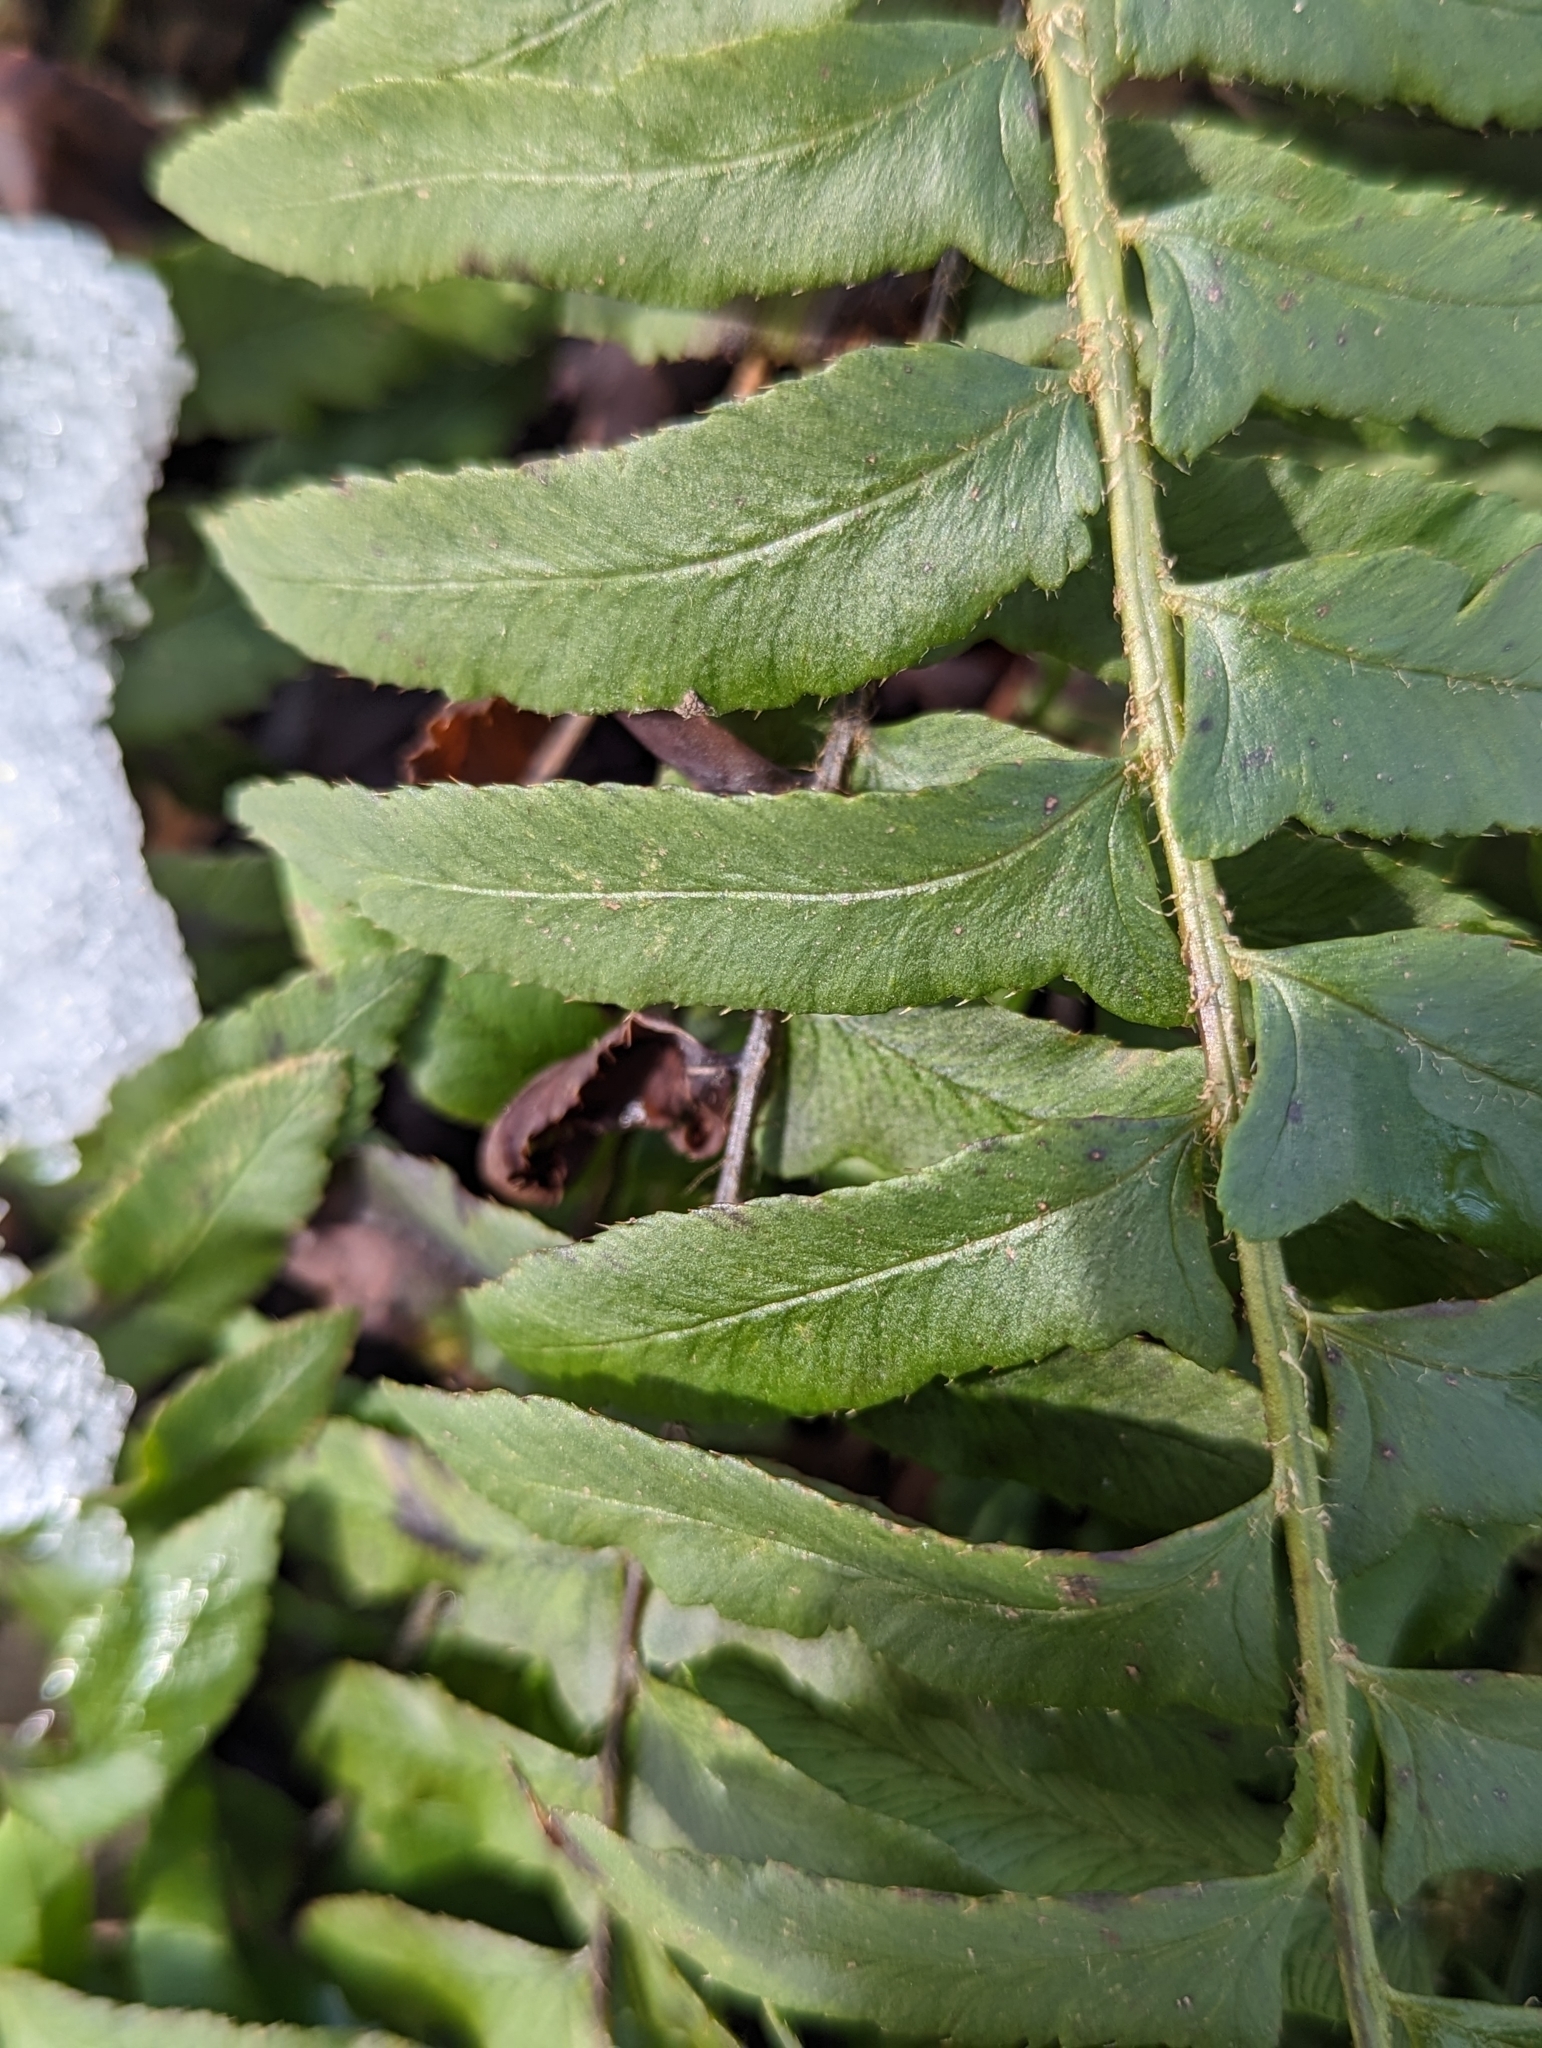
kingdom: Plantae
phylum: Tracheophyta
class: Polypodiopsida
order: Polypodiales
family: Dryopteridaceae
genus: Polystichum
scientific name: Polystichum acrostichoides
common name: Christmas fern
